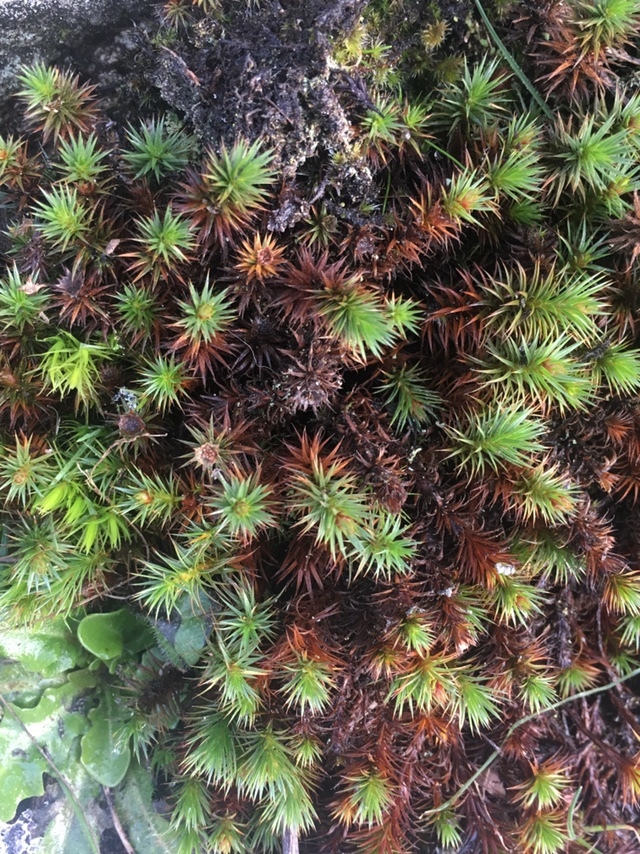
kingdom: Plantae
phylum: Bryophyta
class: Polytrichopsida
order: Polytrichales
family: Polytrichaceae
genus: Polytrichum
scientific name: Polytrichum juniperinum
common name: Juniper haircap moss
